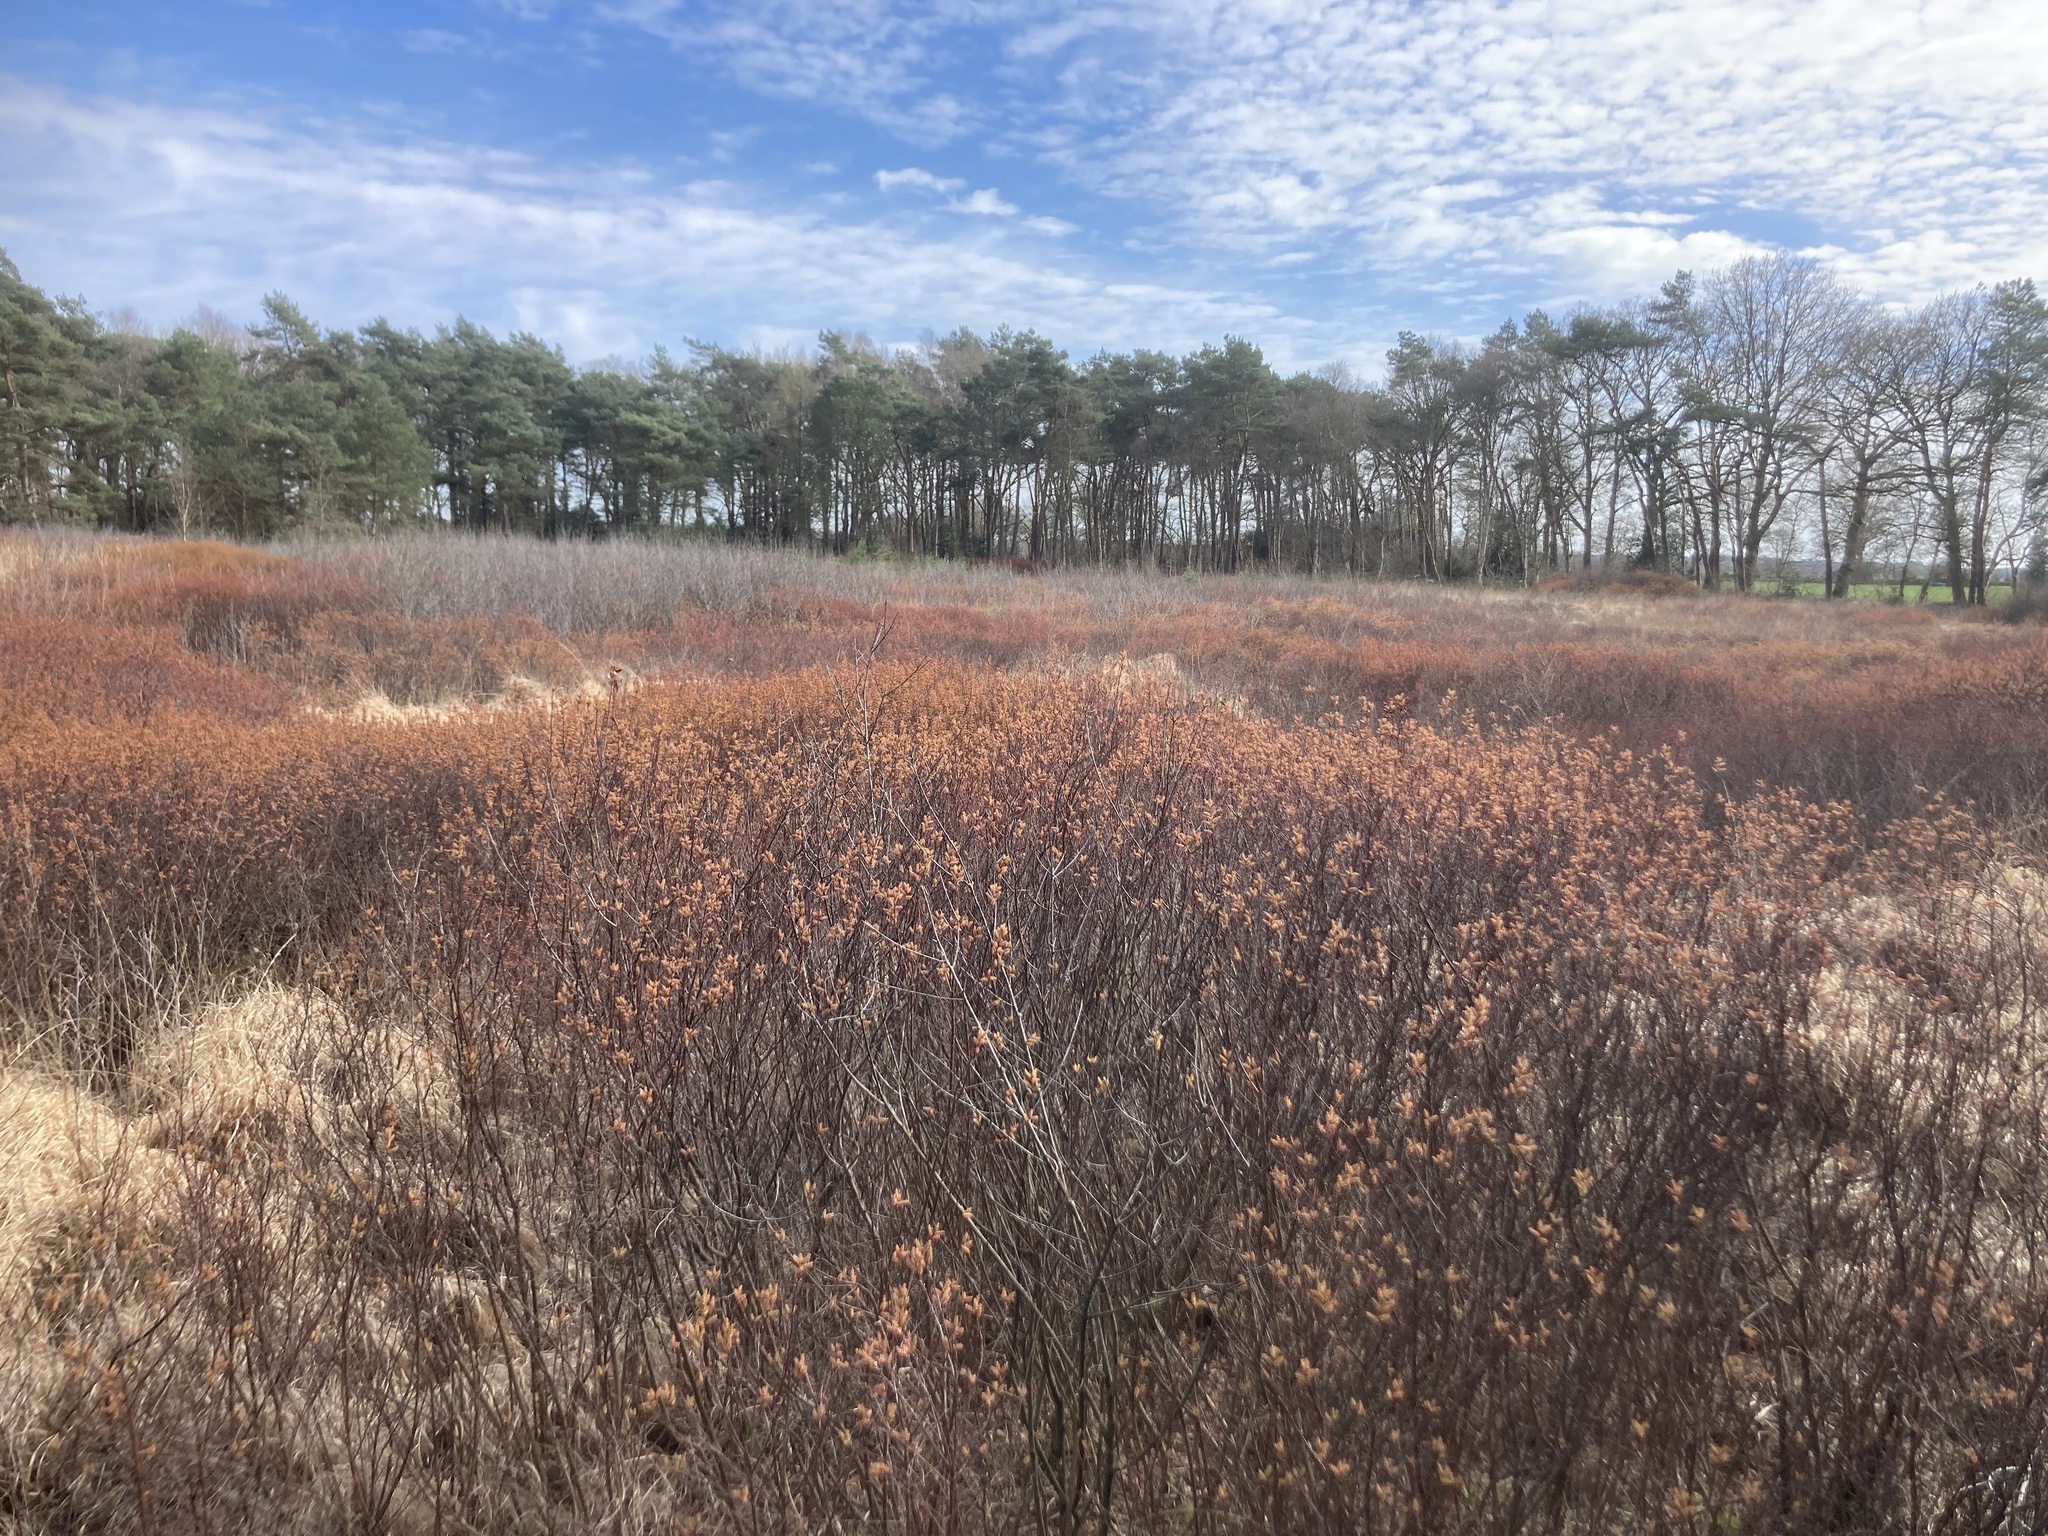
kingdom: Plantae
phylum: Tracheophyta
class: Magnoliopsida
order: Fagales
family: Myricaceae
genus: Myrica
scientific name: Myrica gale
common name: Sweet gale
